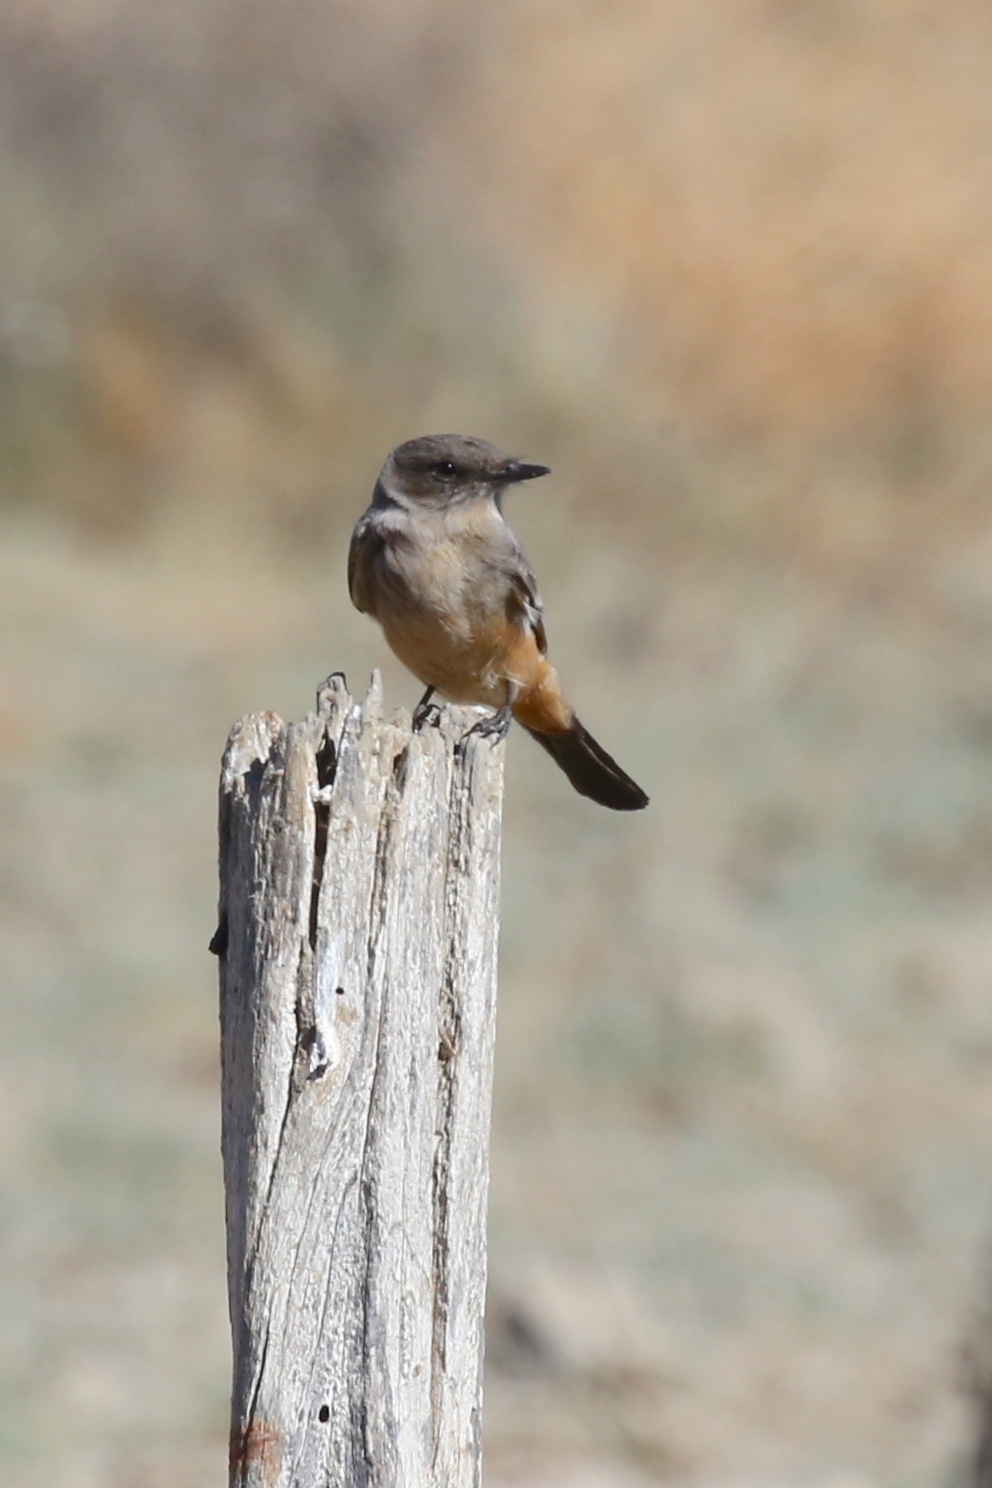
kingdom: Animalia
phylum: Chordata
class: Aves
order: Passeriformes
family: Tyrannidae
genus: Sayornis
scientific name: Sayornis saya
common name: Say's phoebe
